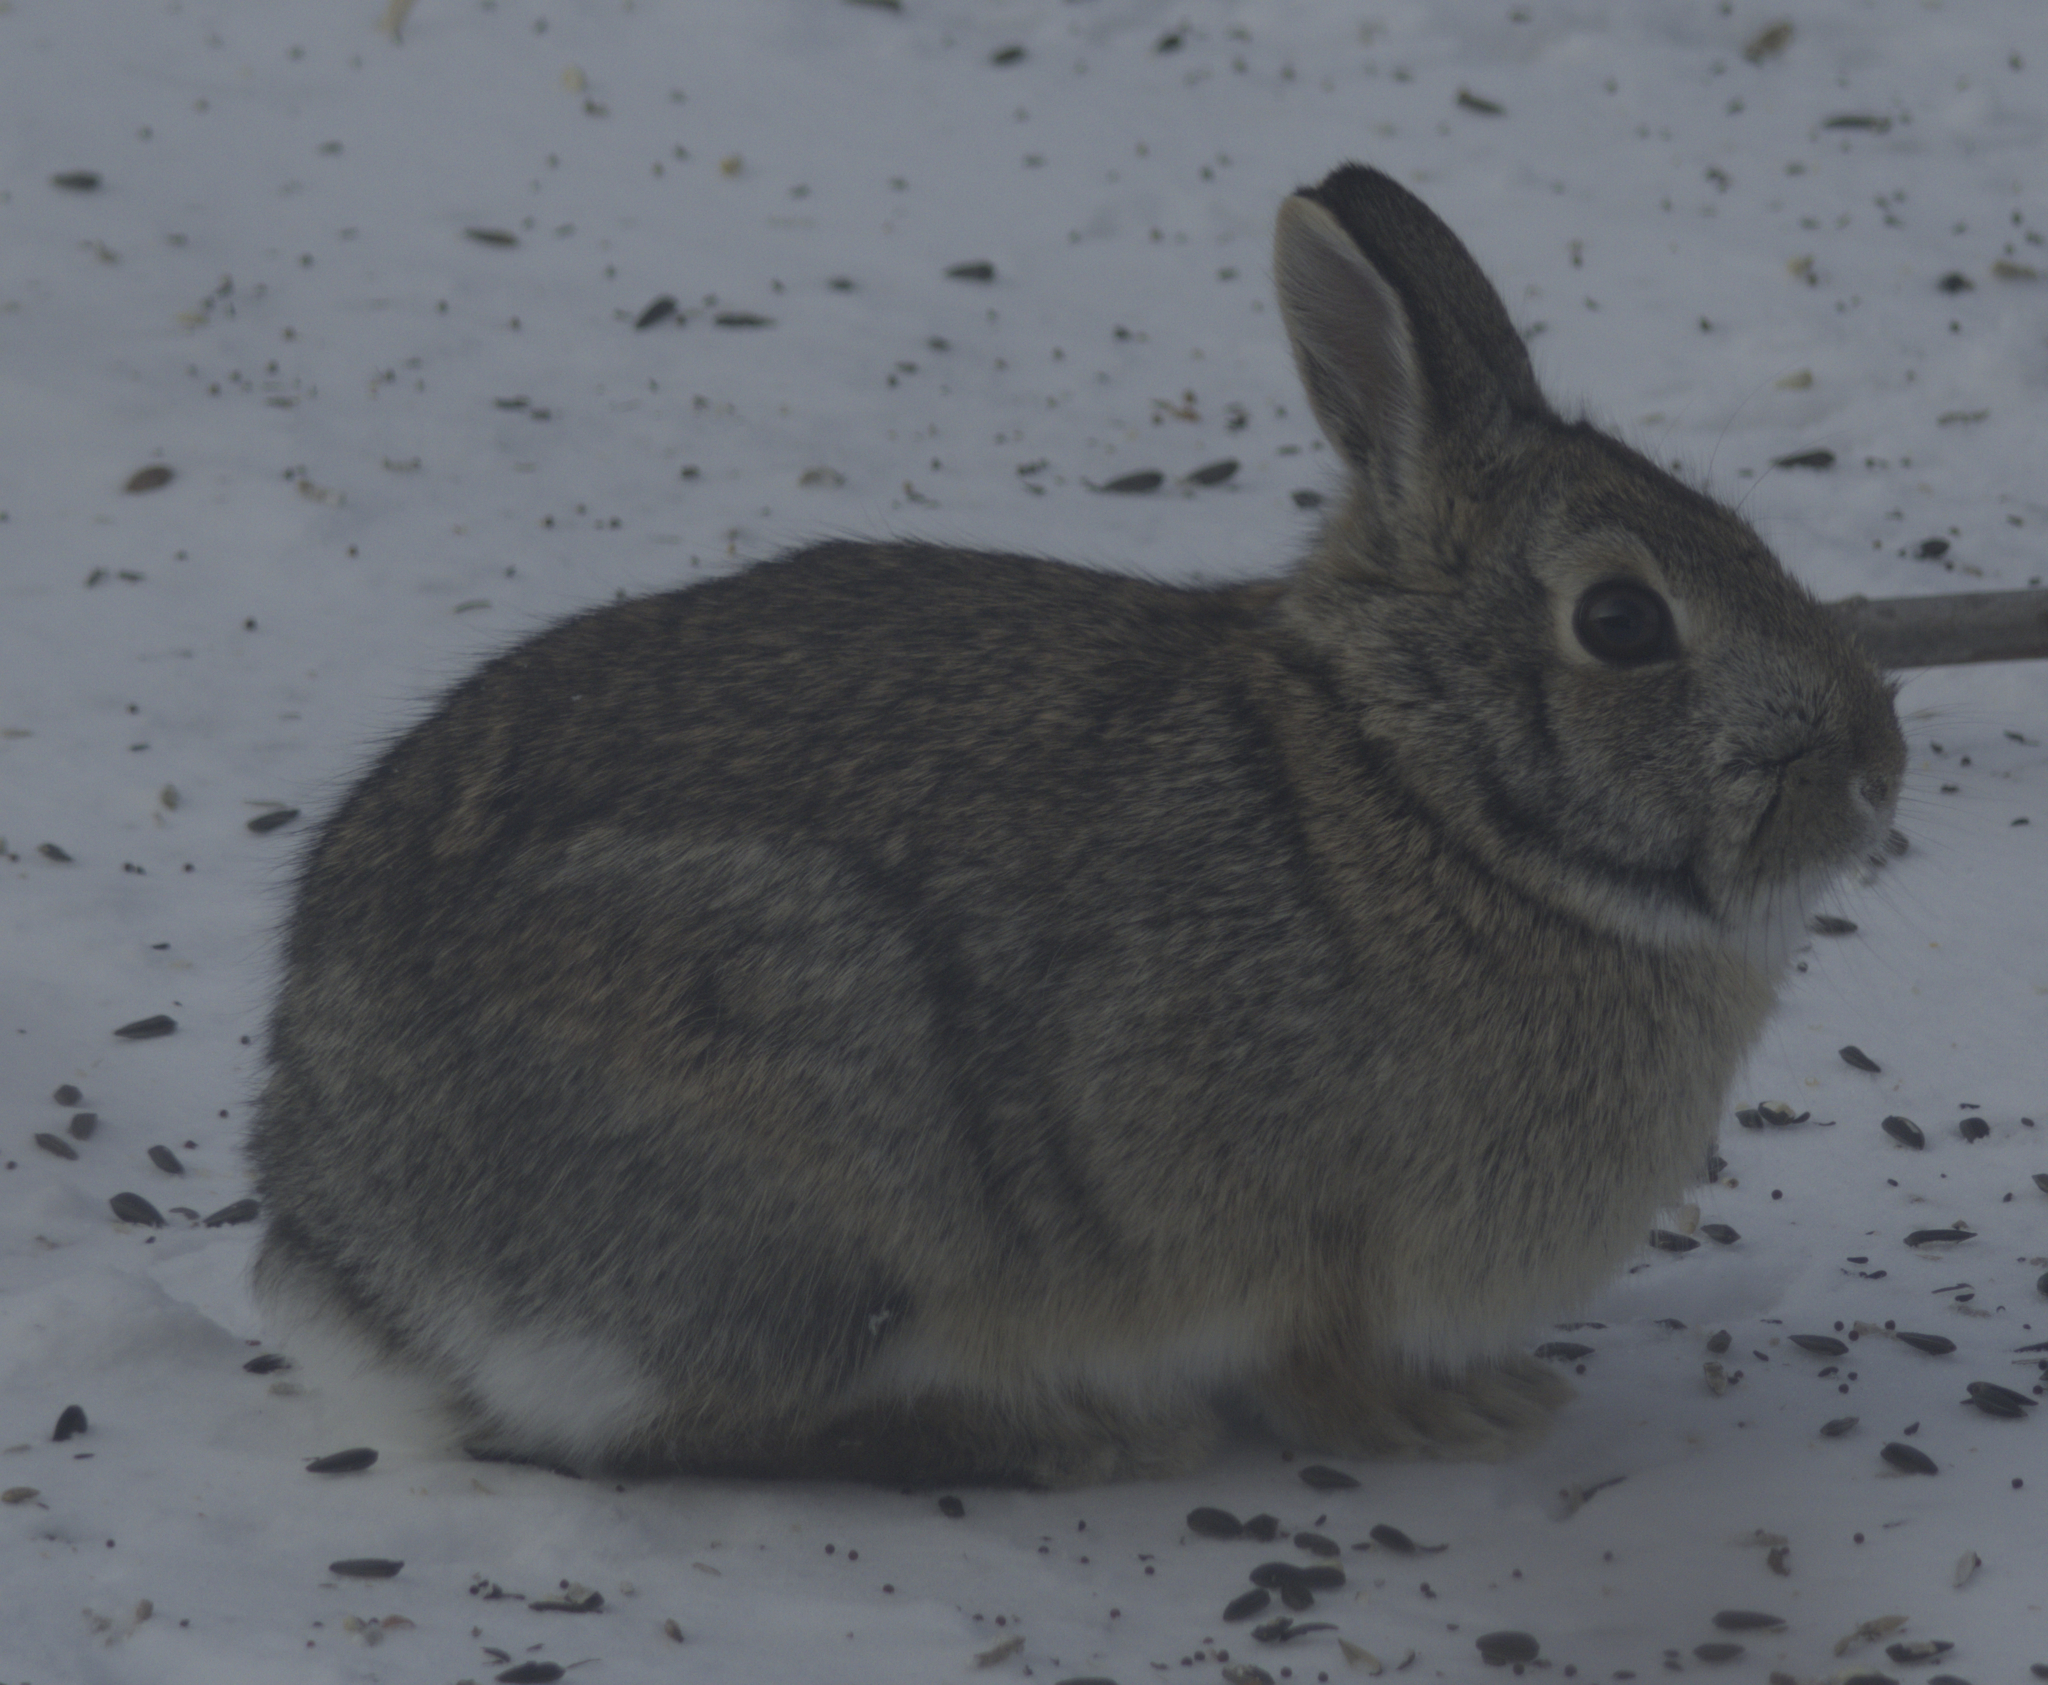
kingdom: Animalia
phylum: Chordata
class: Mammalia
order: Lagomorpha
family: Leporidae
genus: Sylvilagus
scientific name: Sylvilagus floridanus
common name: Eastern cottontail
